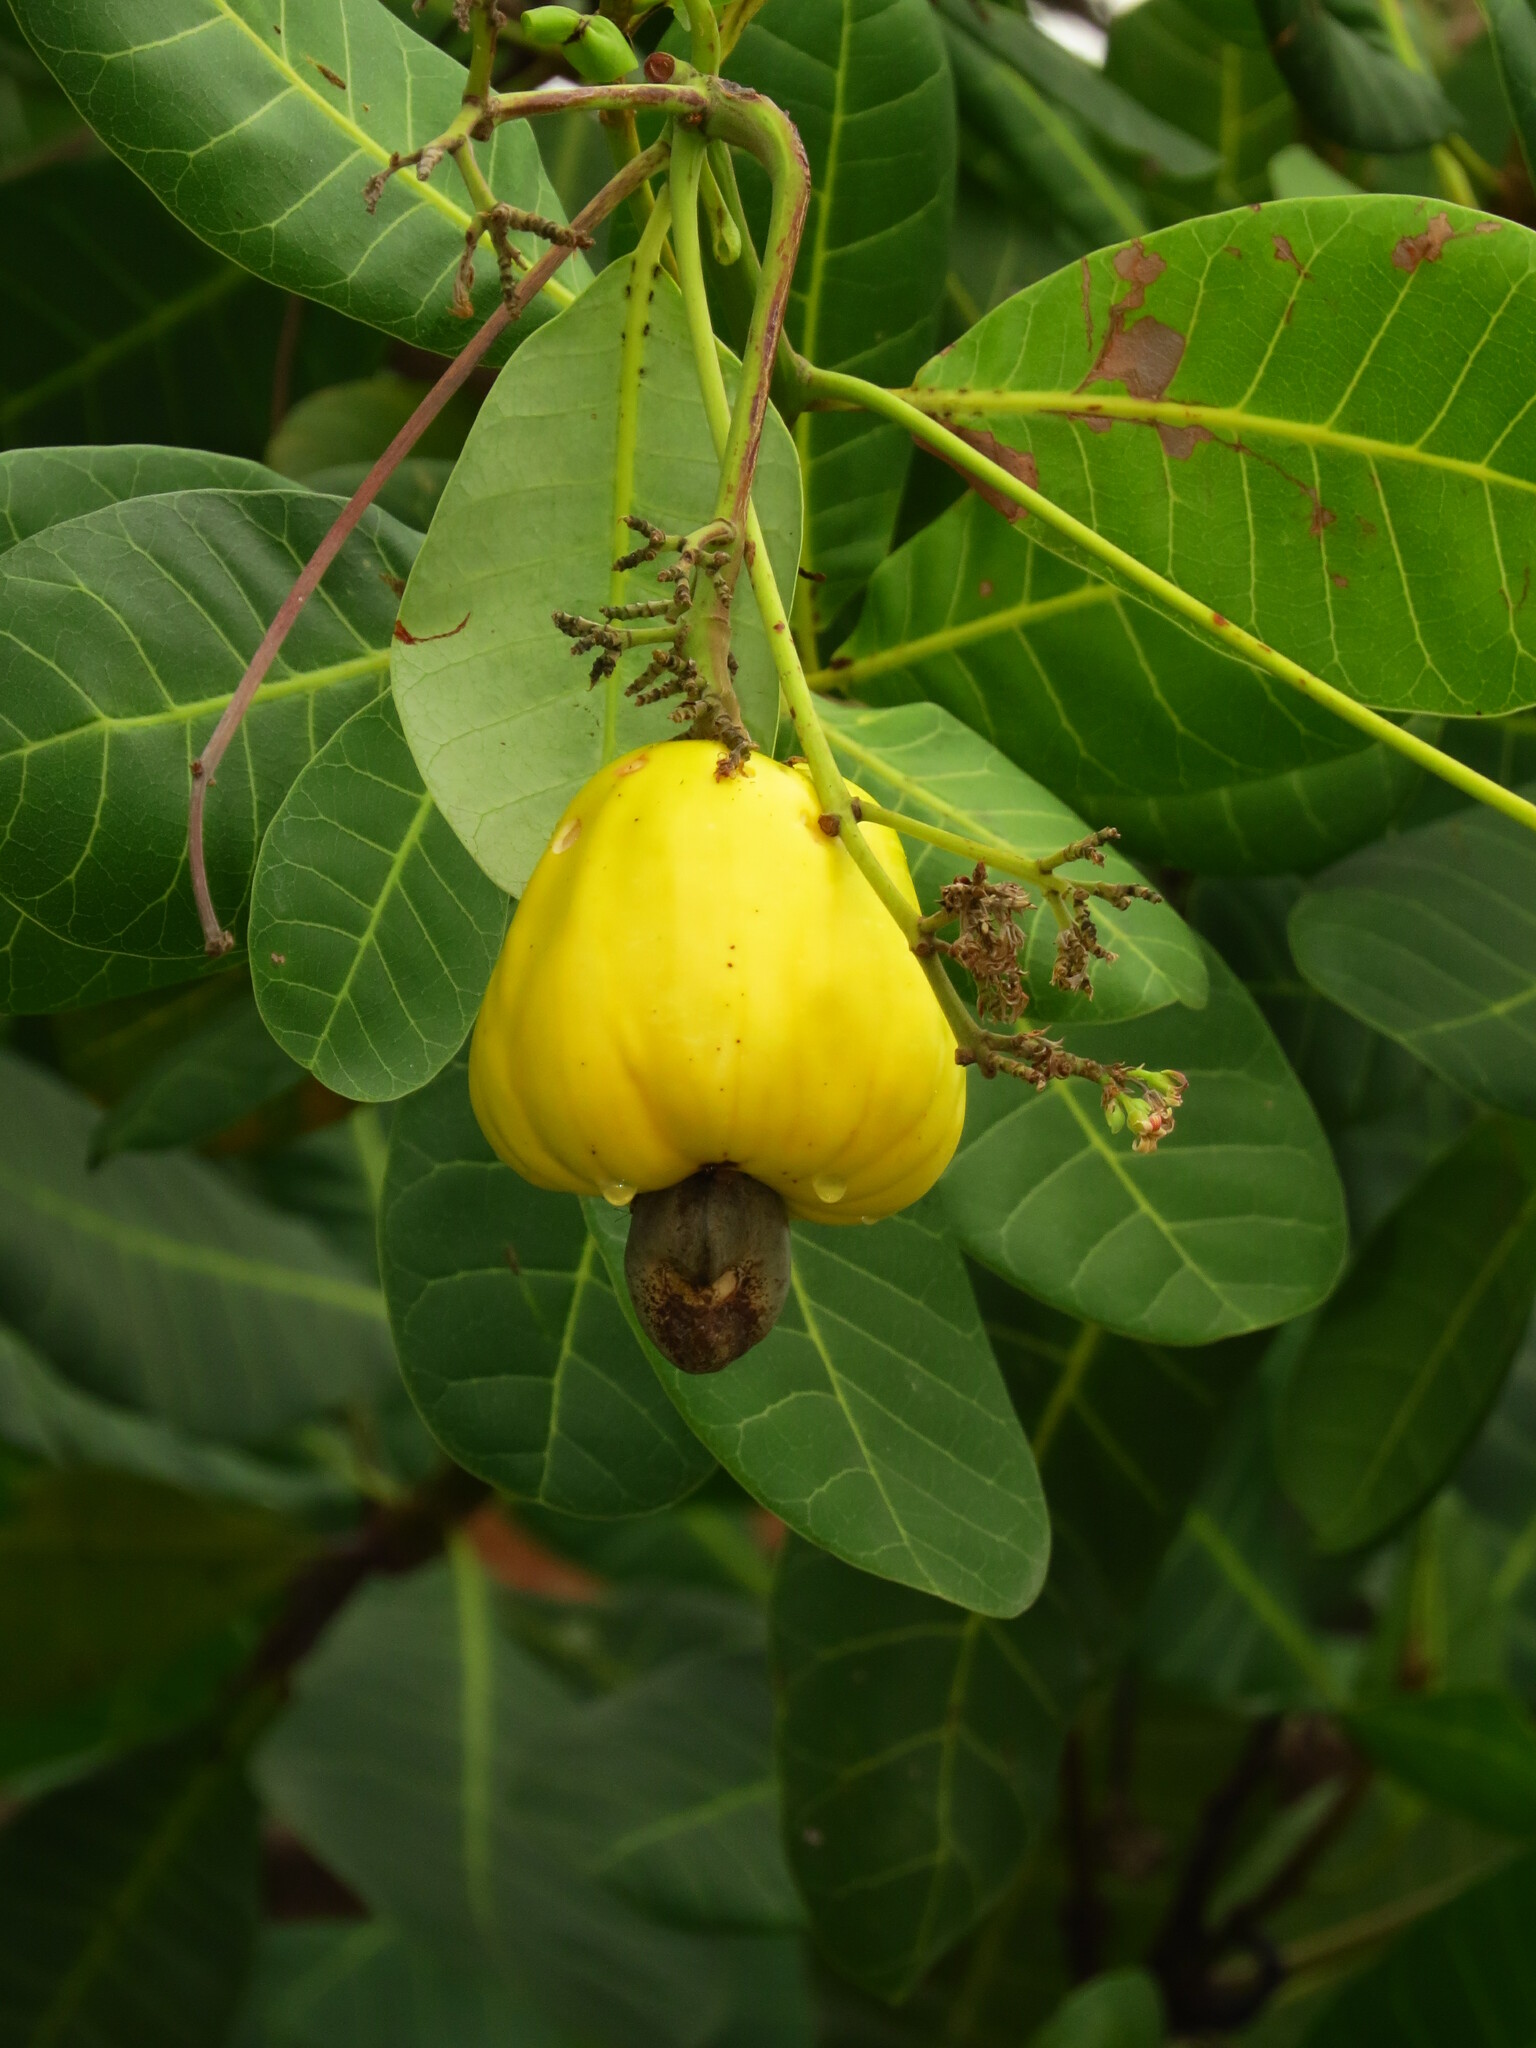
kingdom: Plantae
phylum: Tracheophyta
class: Magnoliopsida
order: Sapindales
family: Anacardiaceae
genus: Anacardium
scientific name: Anacardium occidentale
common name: Cashew
